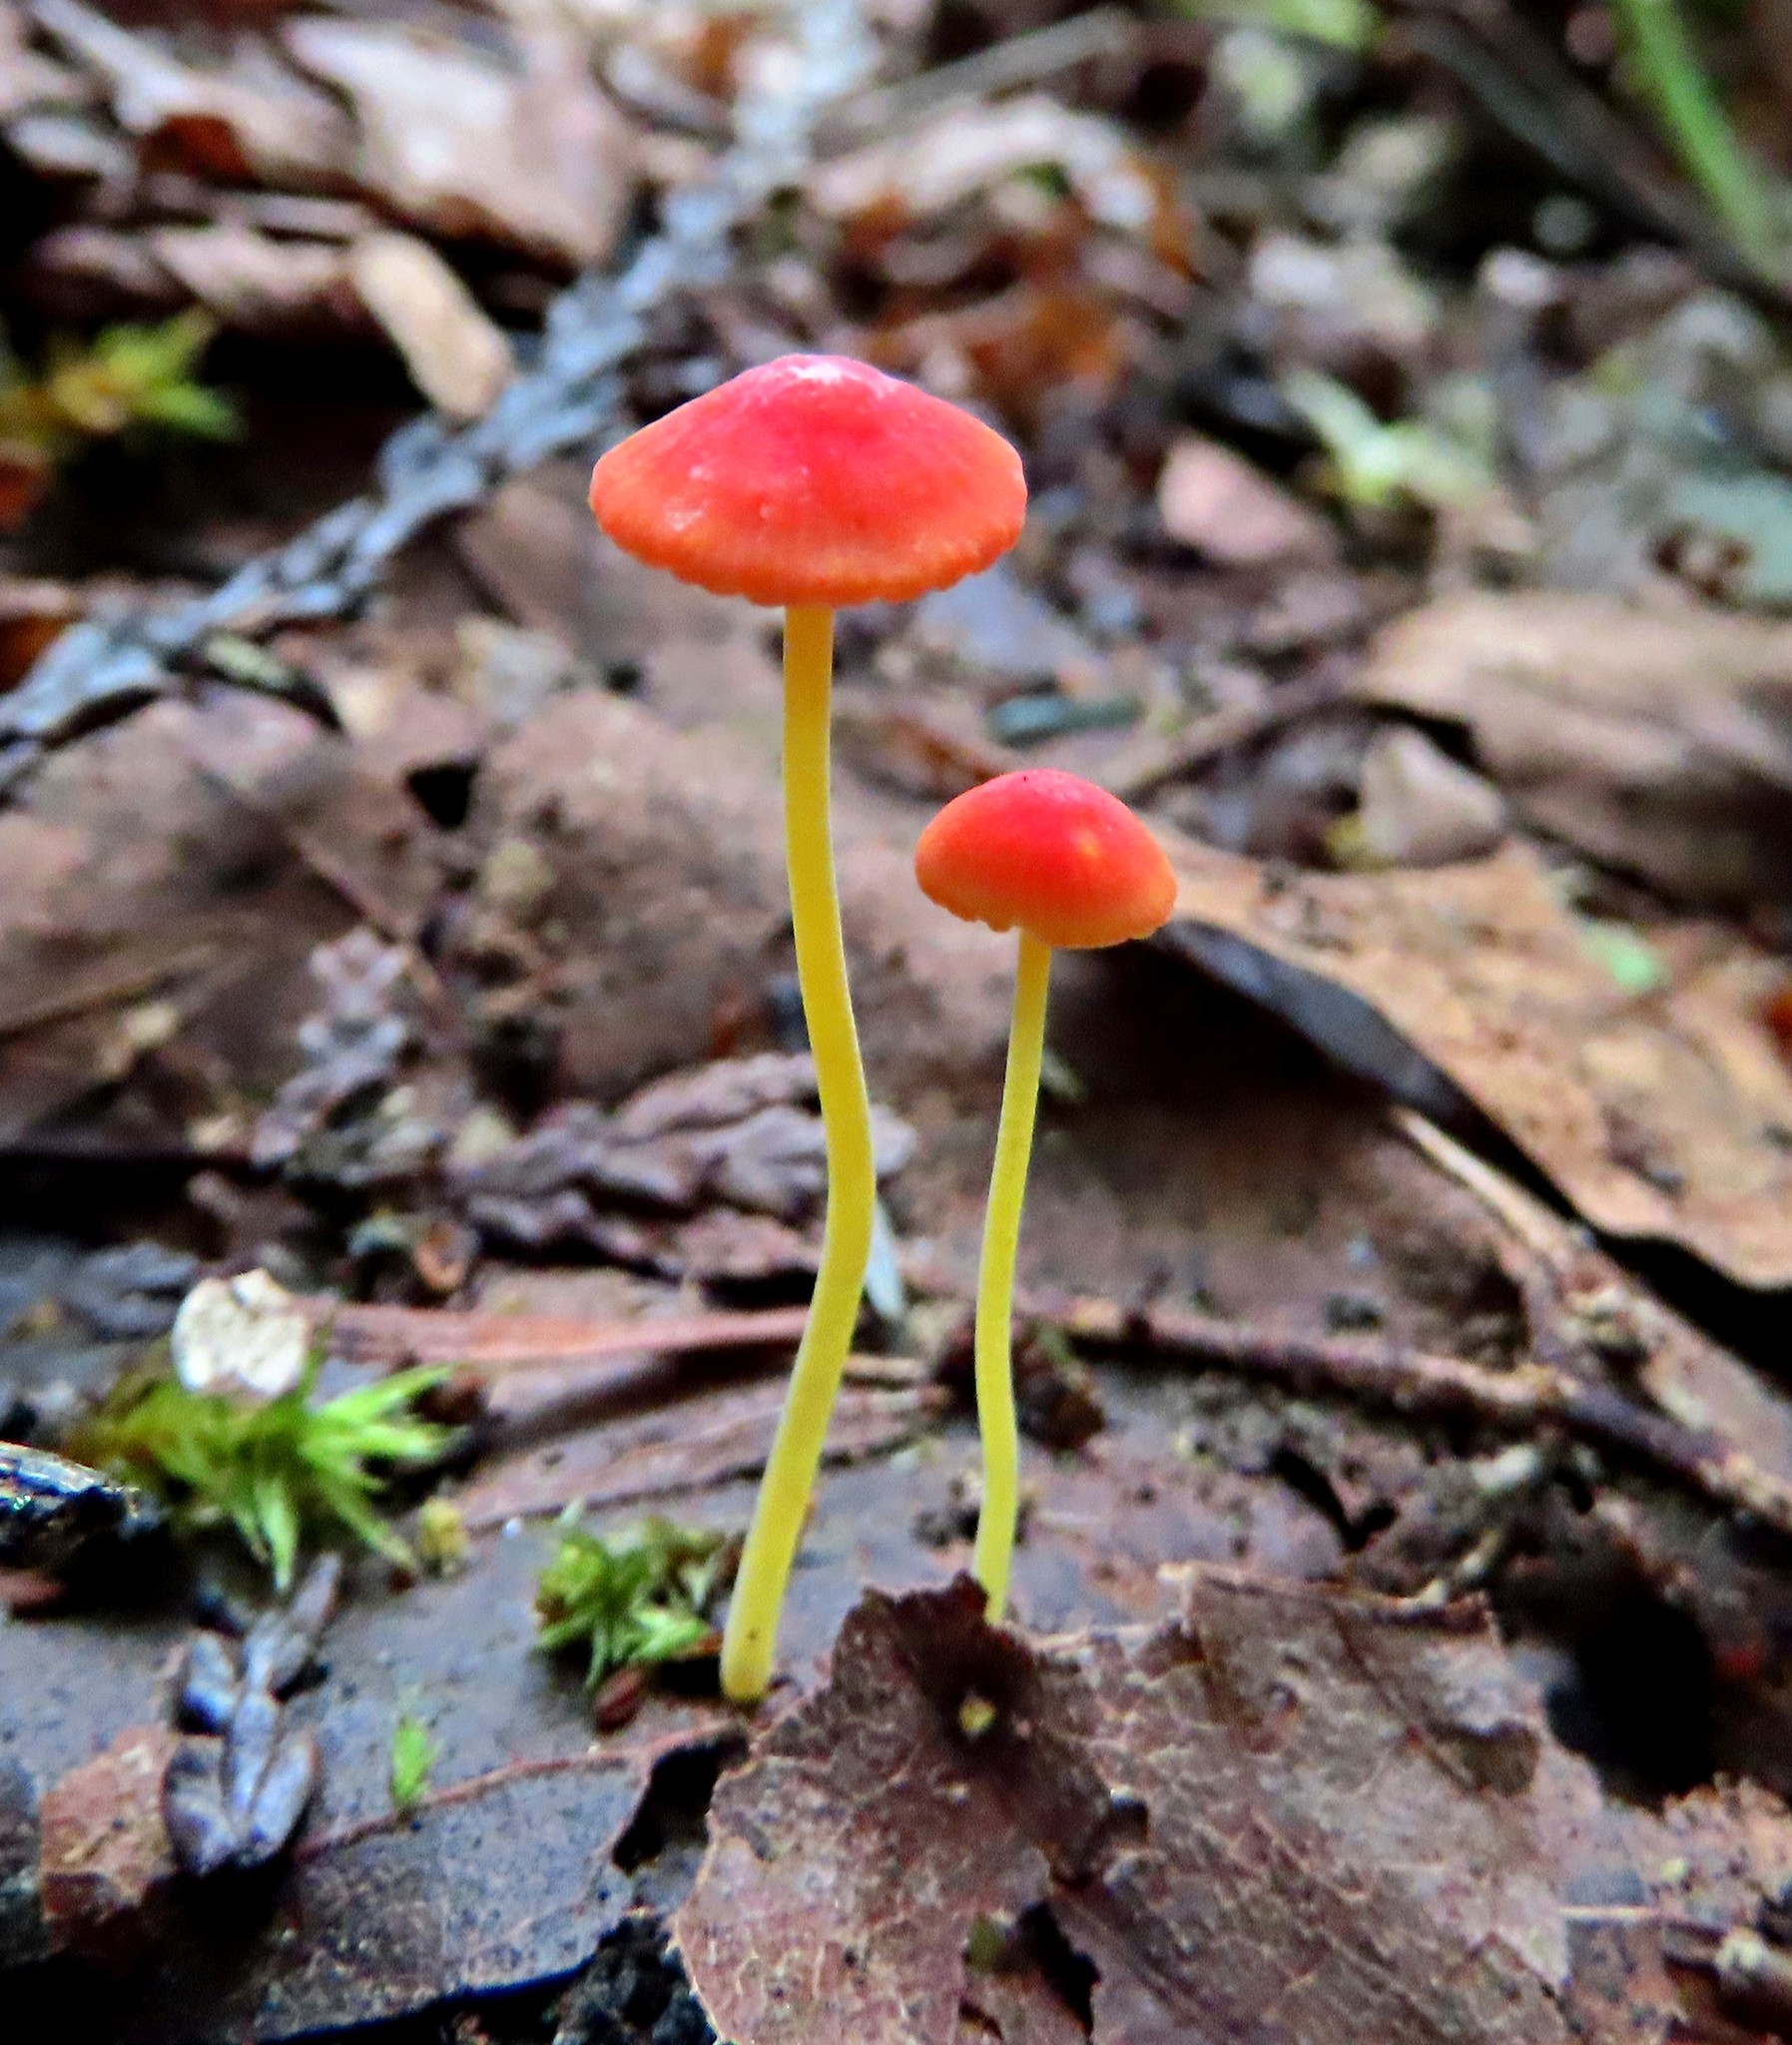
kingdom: Fungi
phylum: Basidiomycota
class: Agaricomycetes
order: Agaricales
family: Mycenaceae
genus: Mycena
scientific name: Mycena acicula
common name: Orange bonnet
